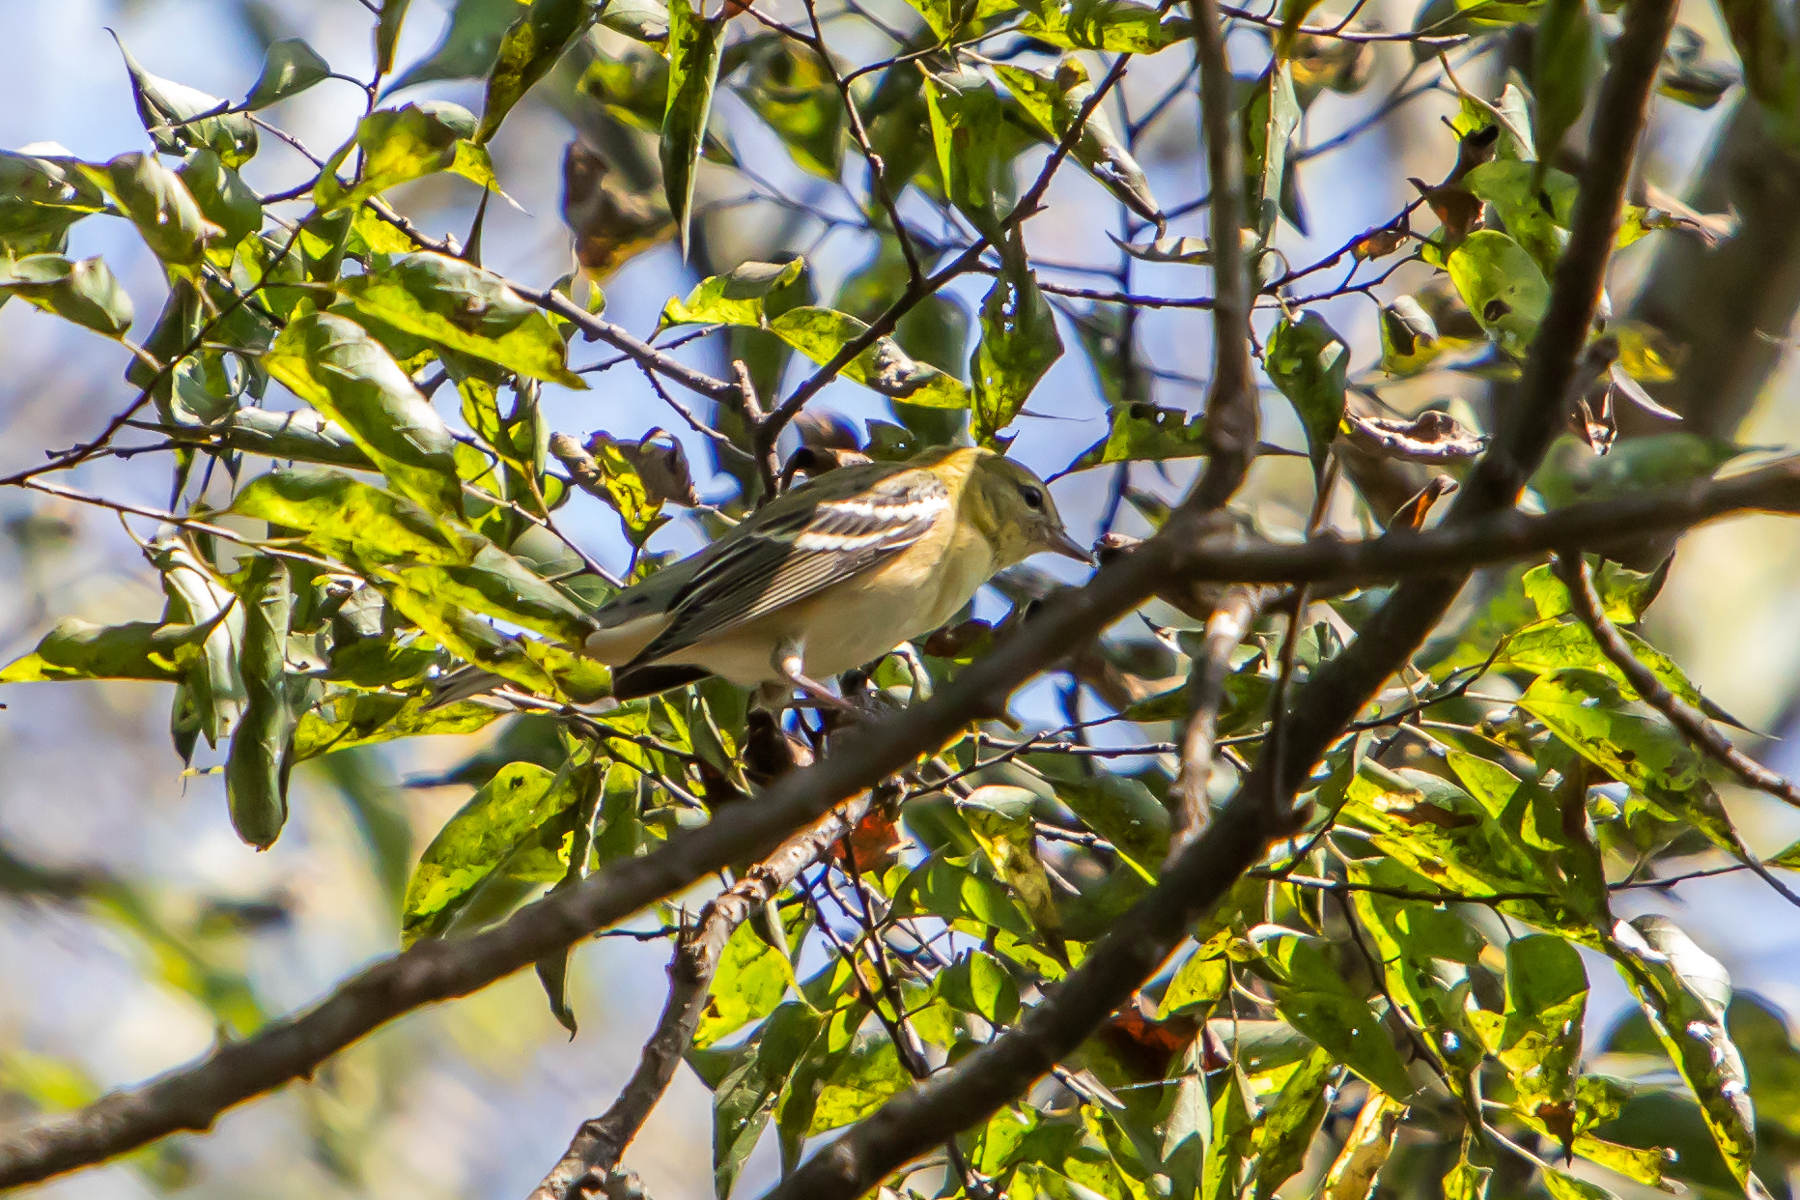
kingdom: Animalia
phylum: Chordata
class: Aves
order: Passeriformes
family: Parulidae
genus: Setophaga
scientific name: Setophaga castanea
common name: Bay-breasted warbler
